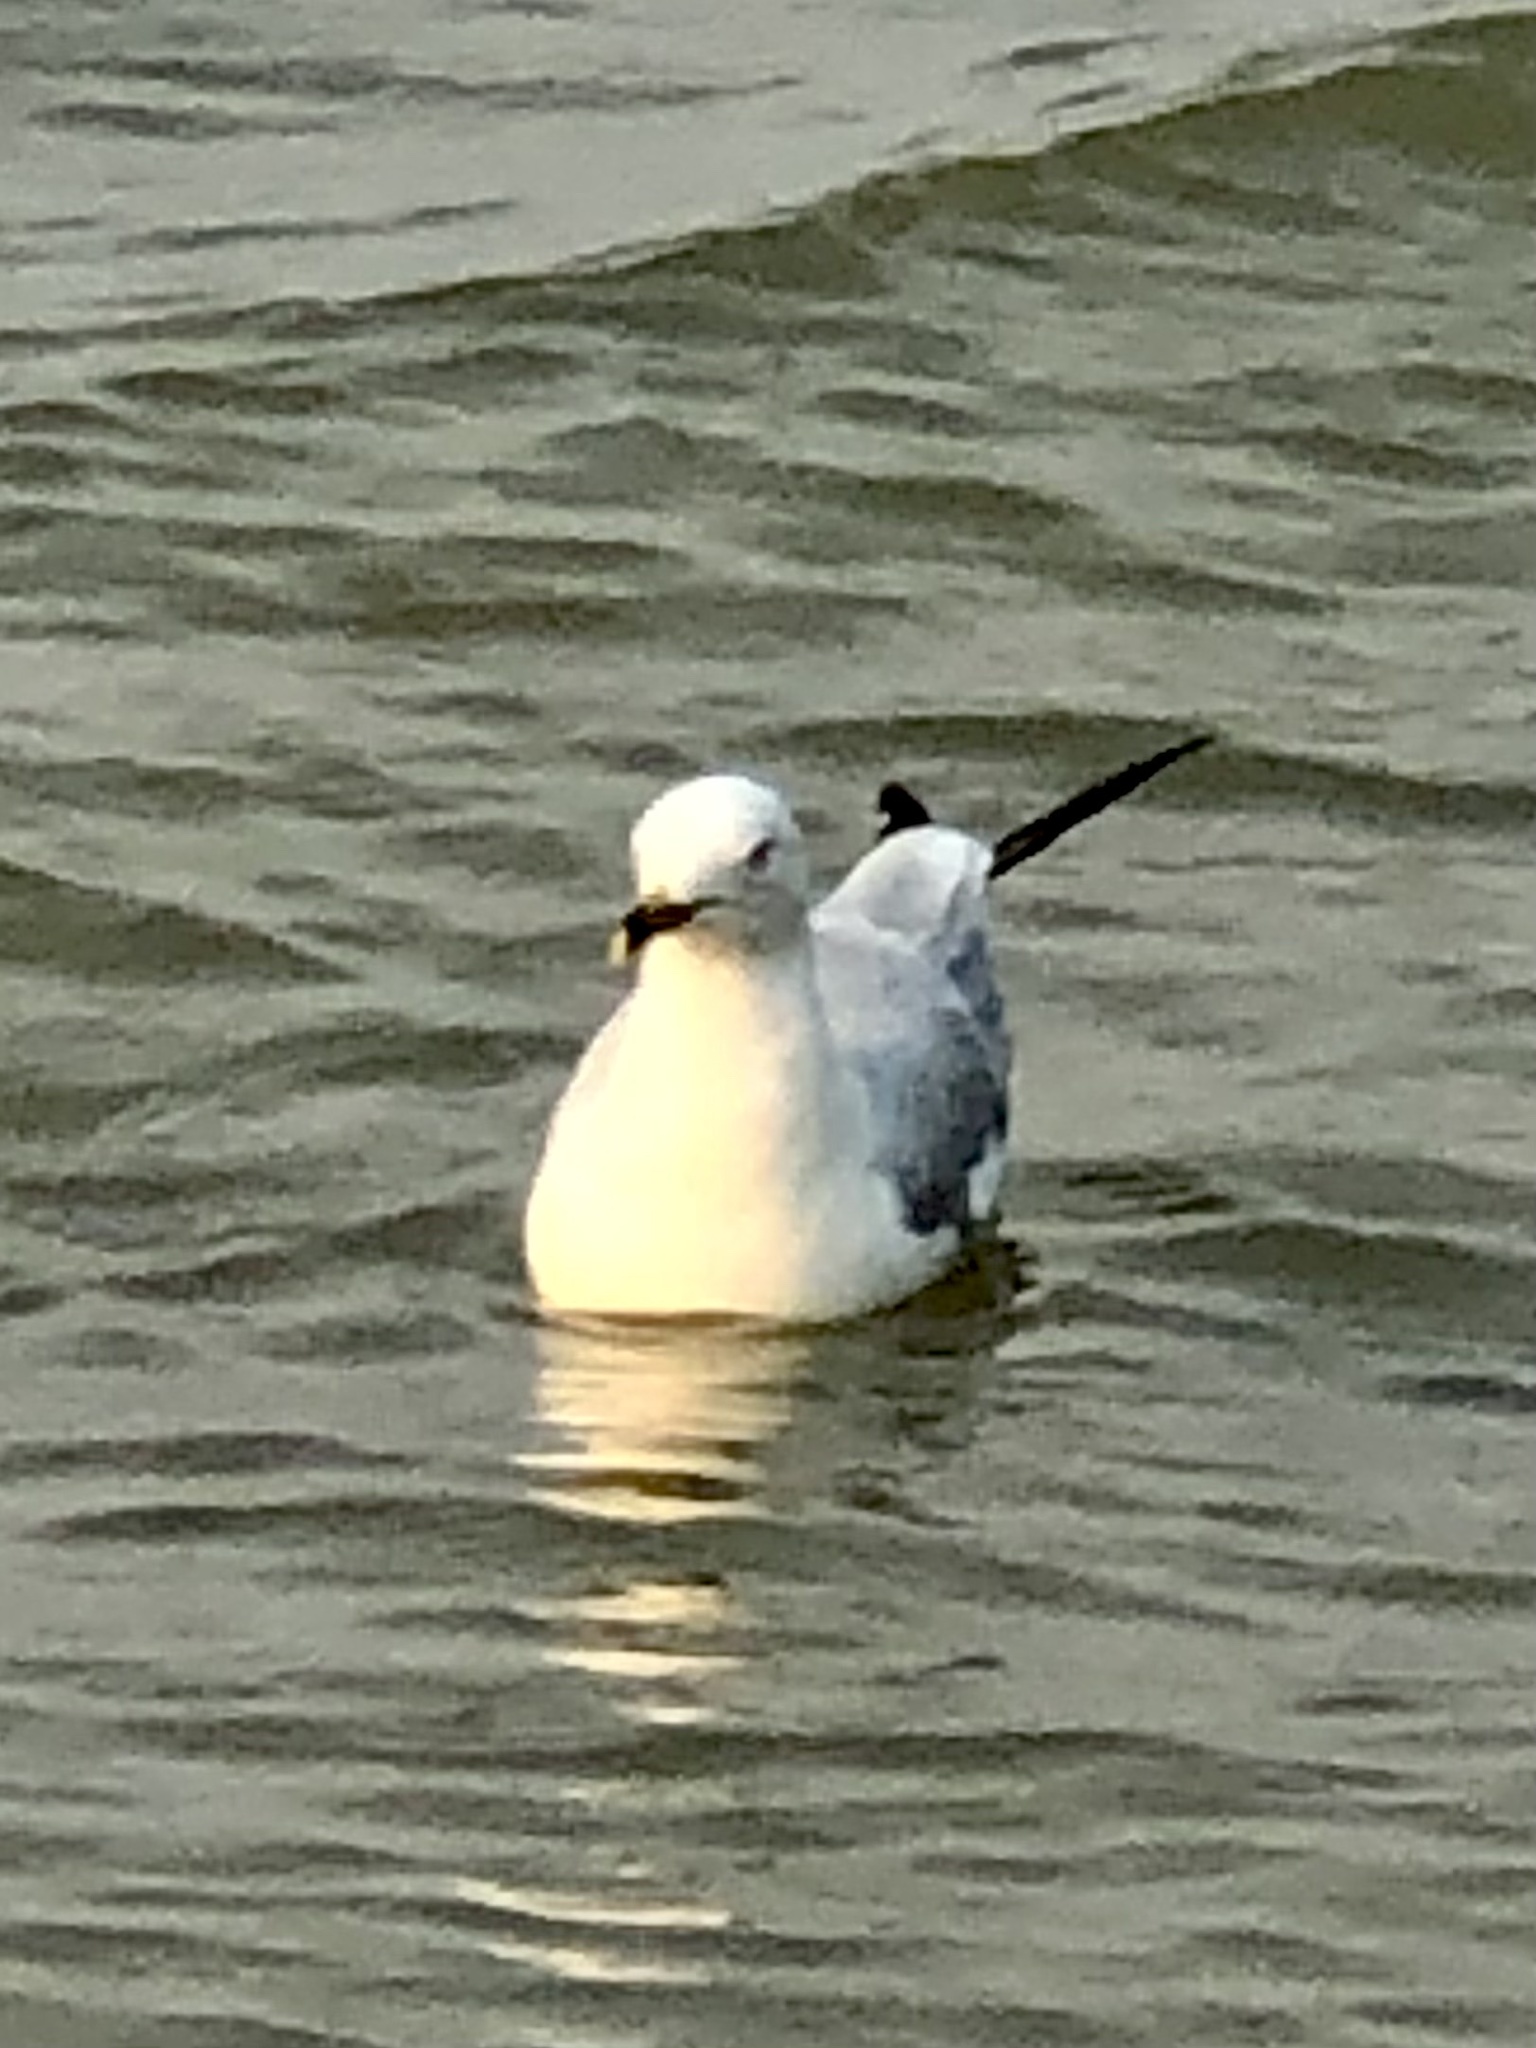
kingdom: Animalia
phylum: Chordata
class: Aves
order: Charadriiformes
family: Laridae
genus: Larus
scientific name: Larus delawarensis
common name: Ring-billed gull
